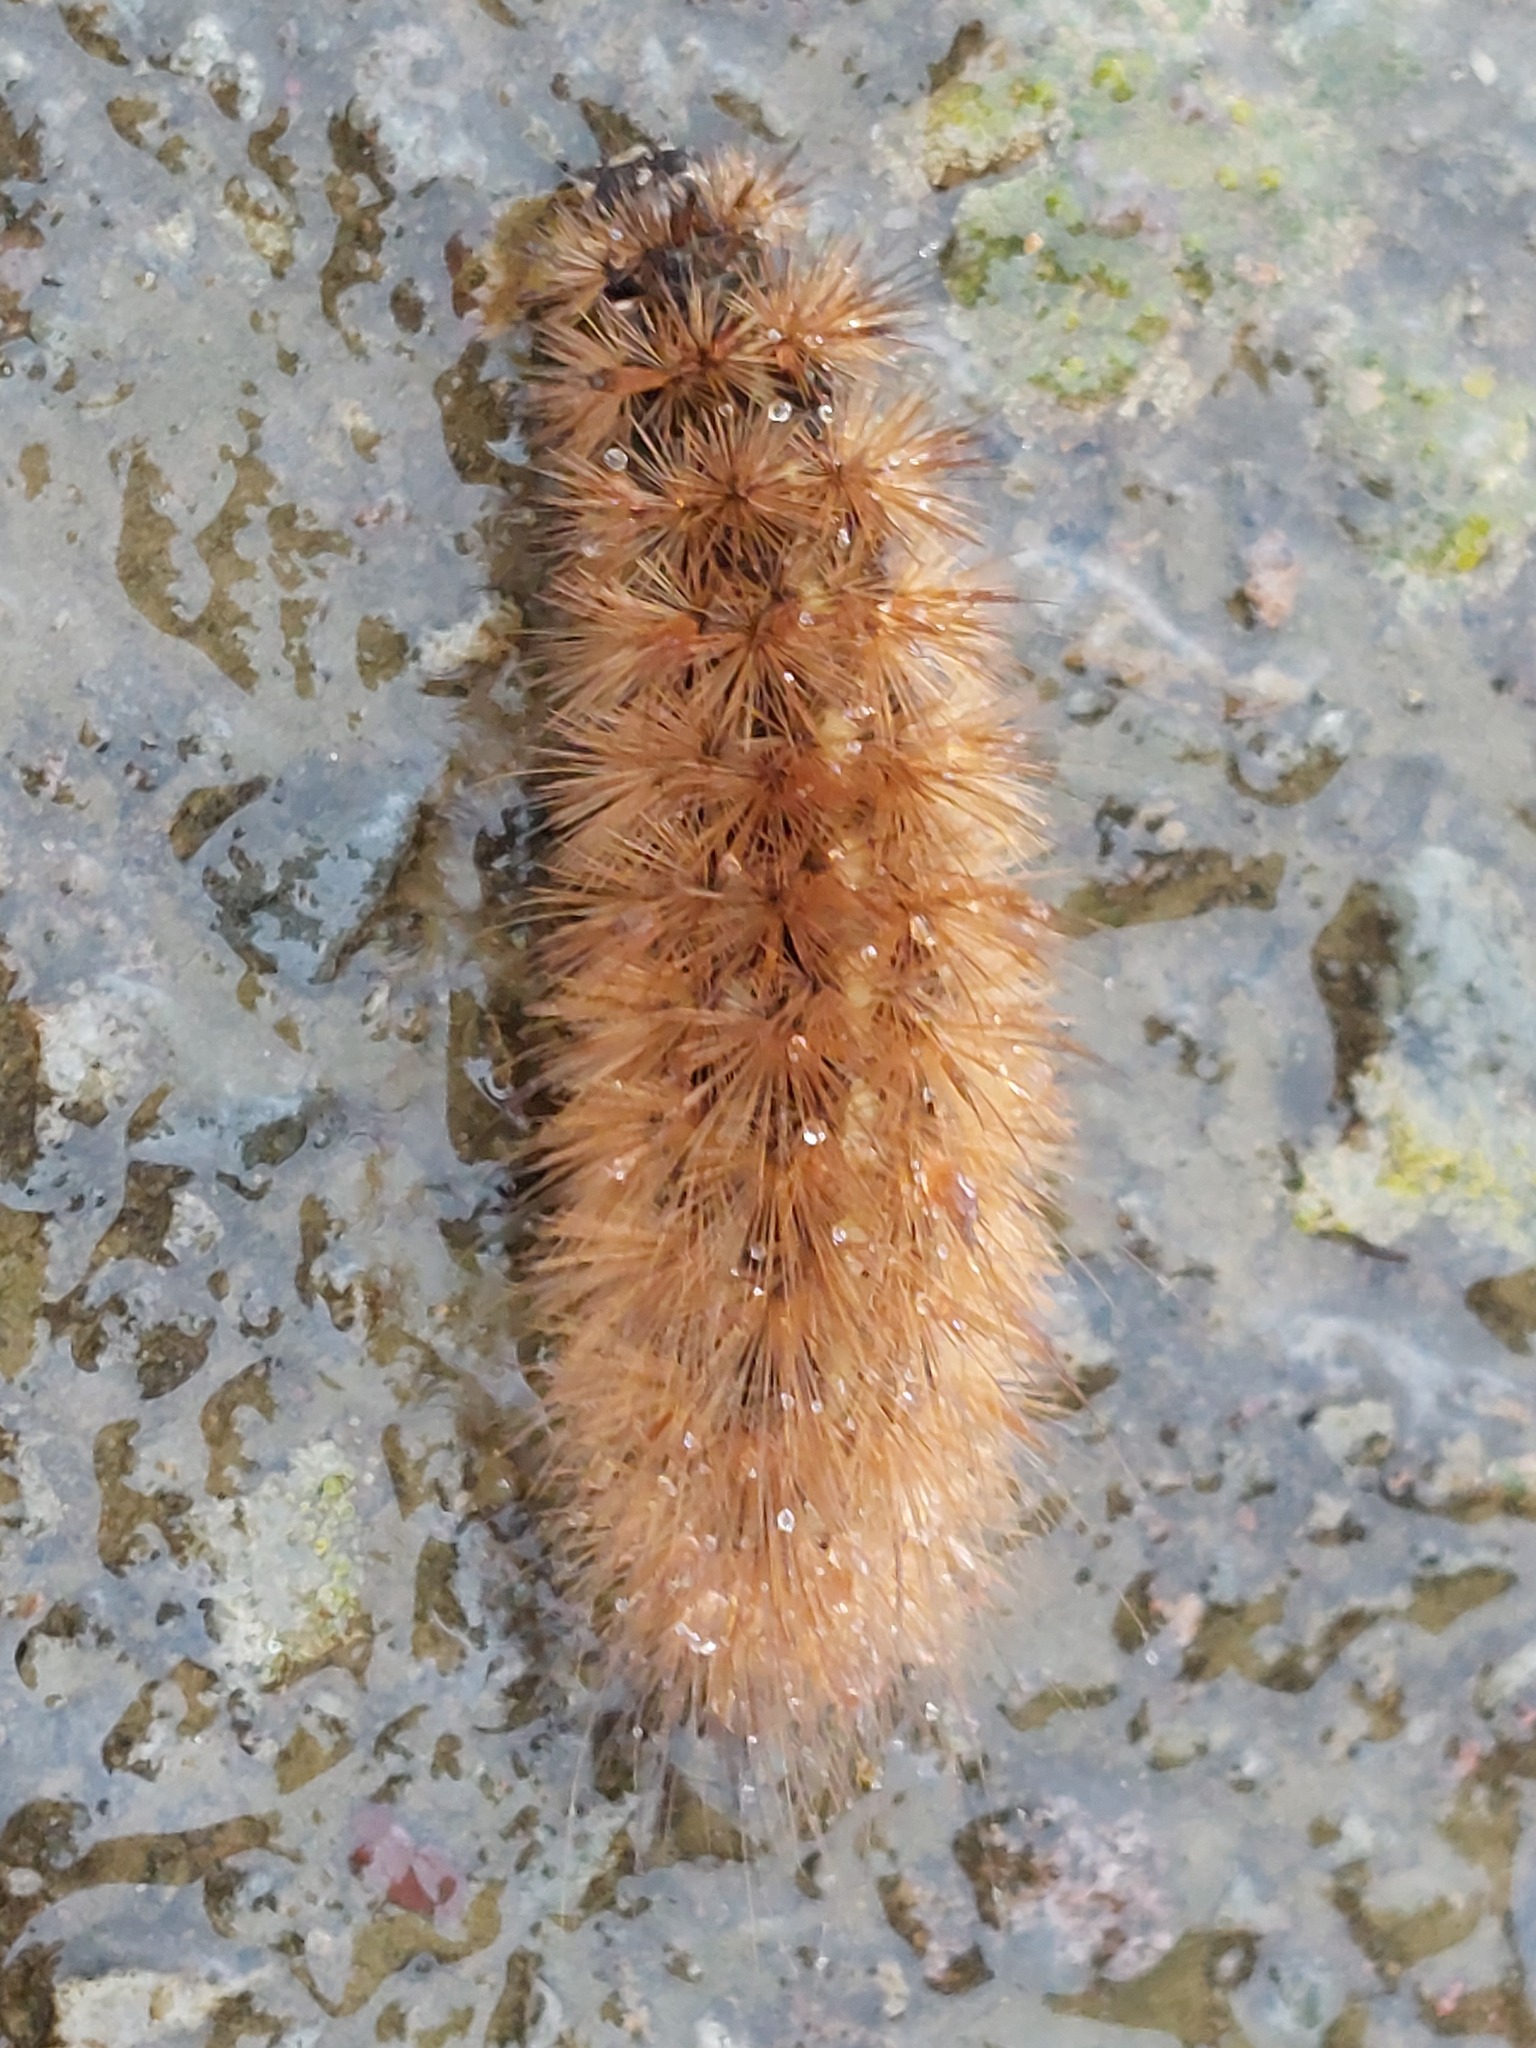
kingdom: Animalia
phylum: Arthropoda
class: Insecta
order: Lepidoptera
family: Erebidae
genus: Phragmatobia
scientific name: Phragmatobia fuliginosa
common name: Ruby tiger
